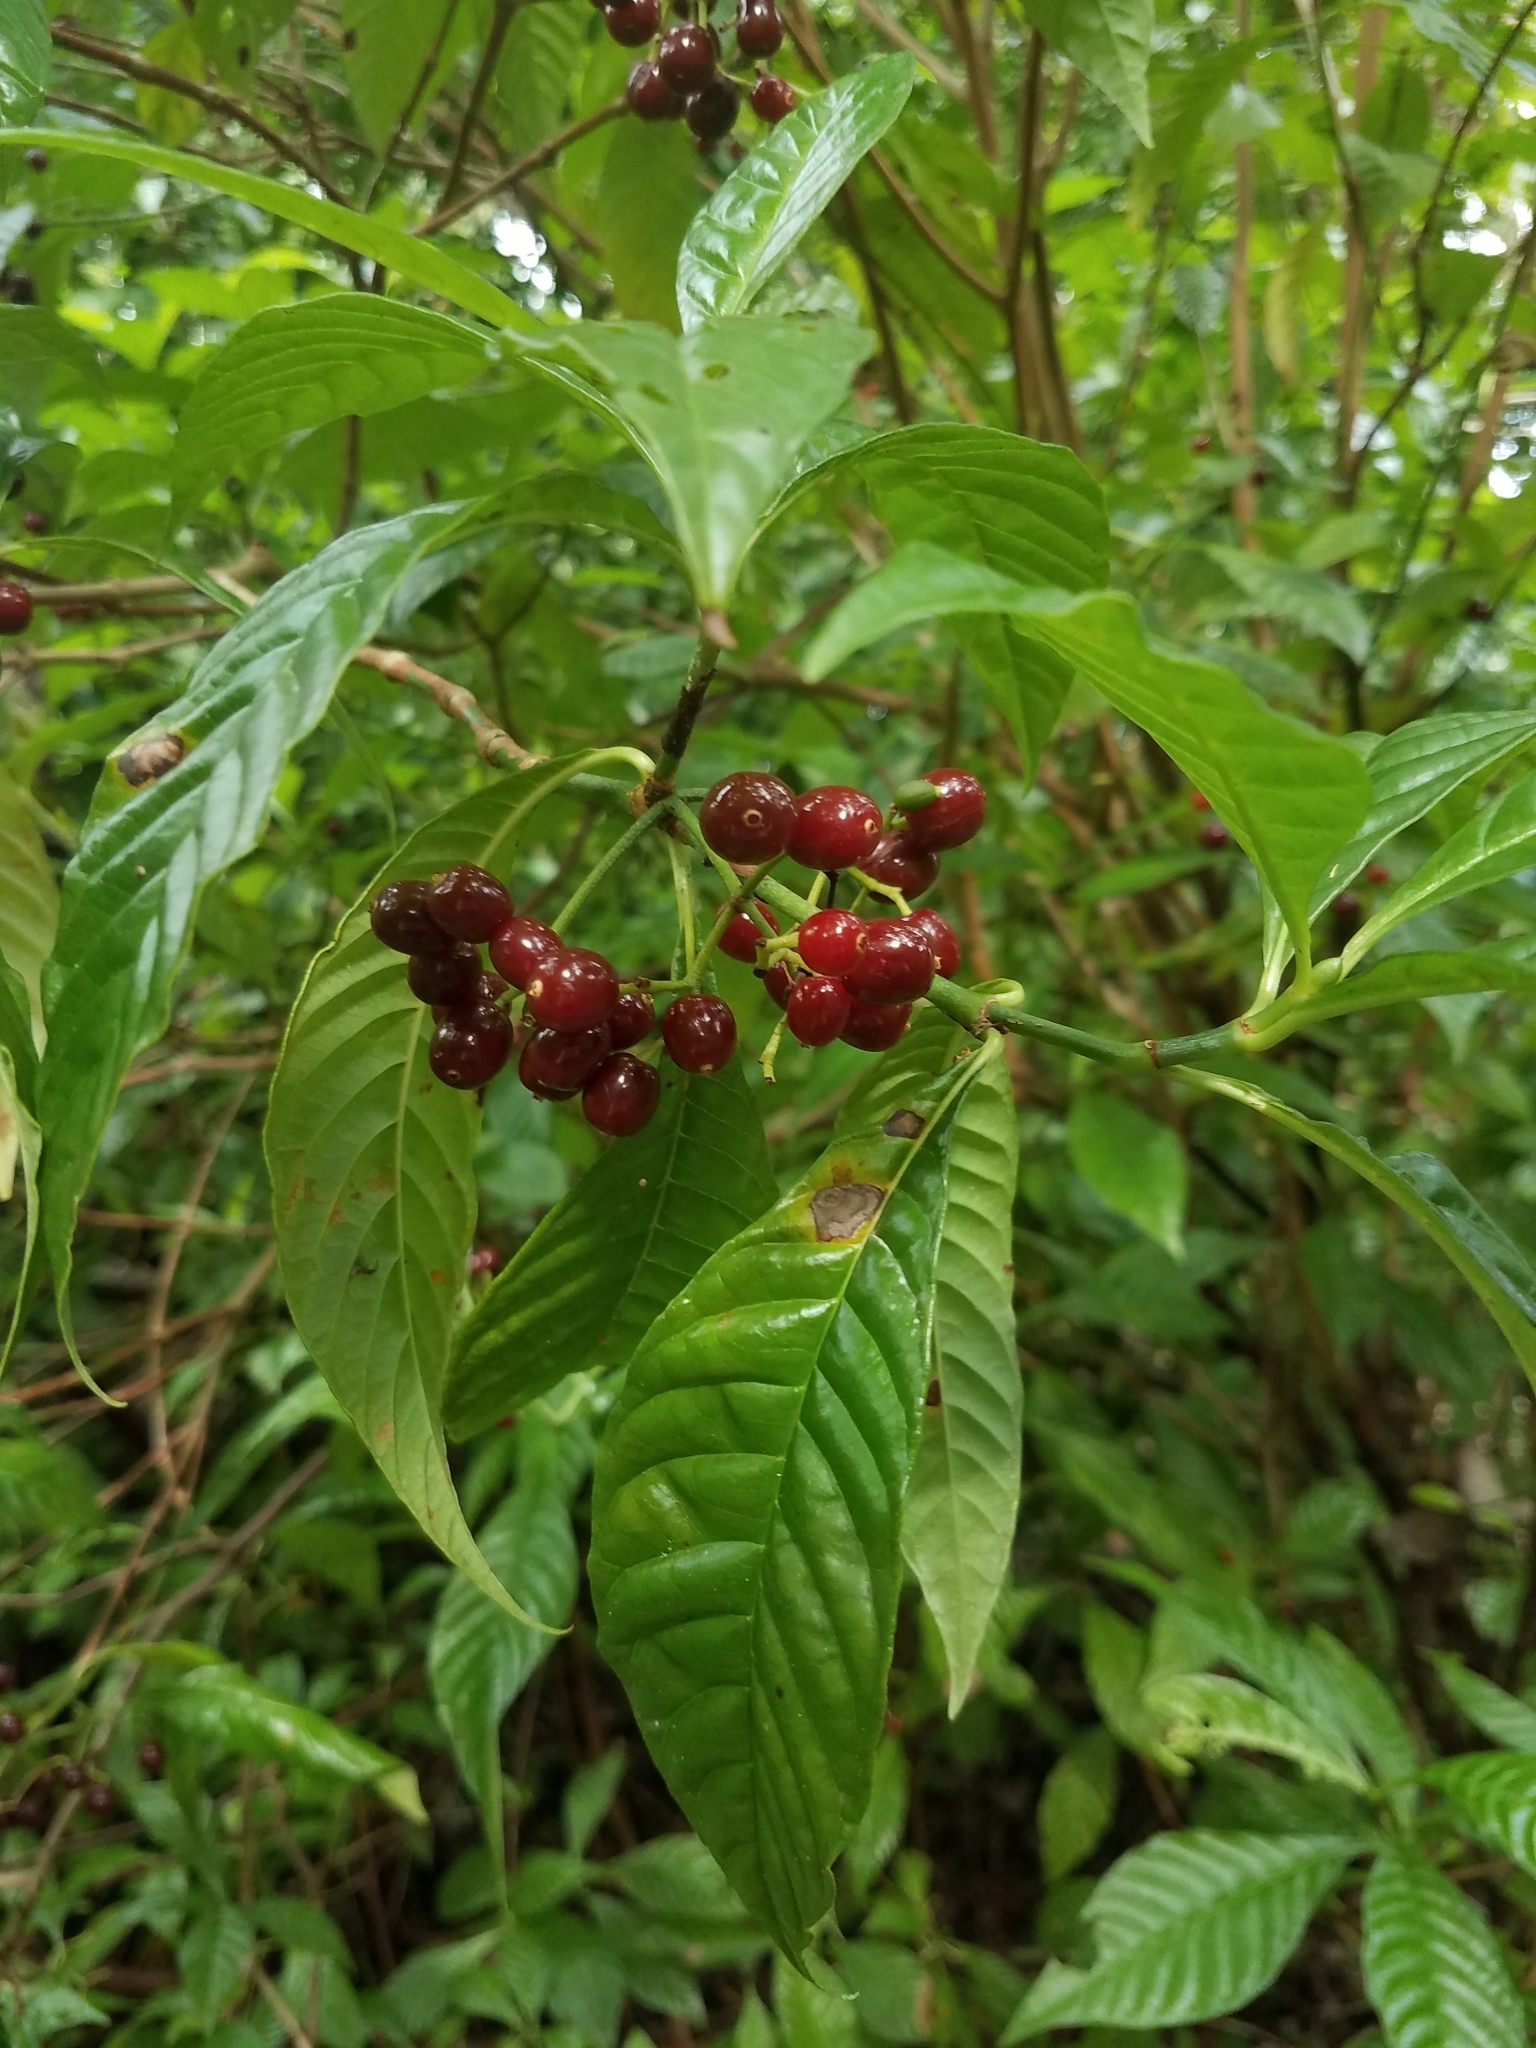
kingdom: Plantae
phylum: Tracheophyta
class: Magnoliopsida
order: Gentianales
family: Rubiaceae
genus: Psychotria
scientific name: Psychotria nervosa
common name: Bastard cankerberry
